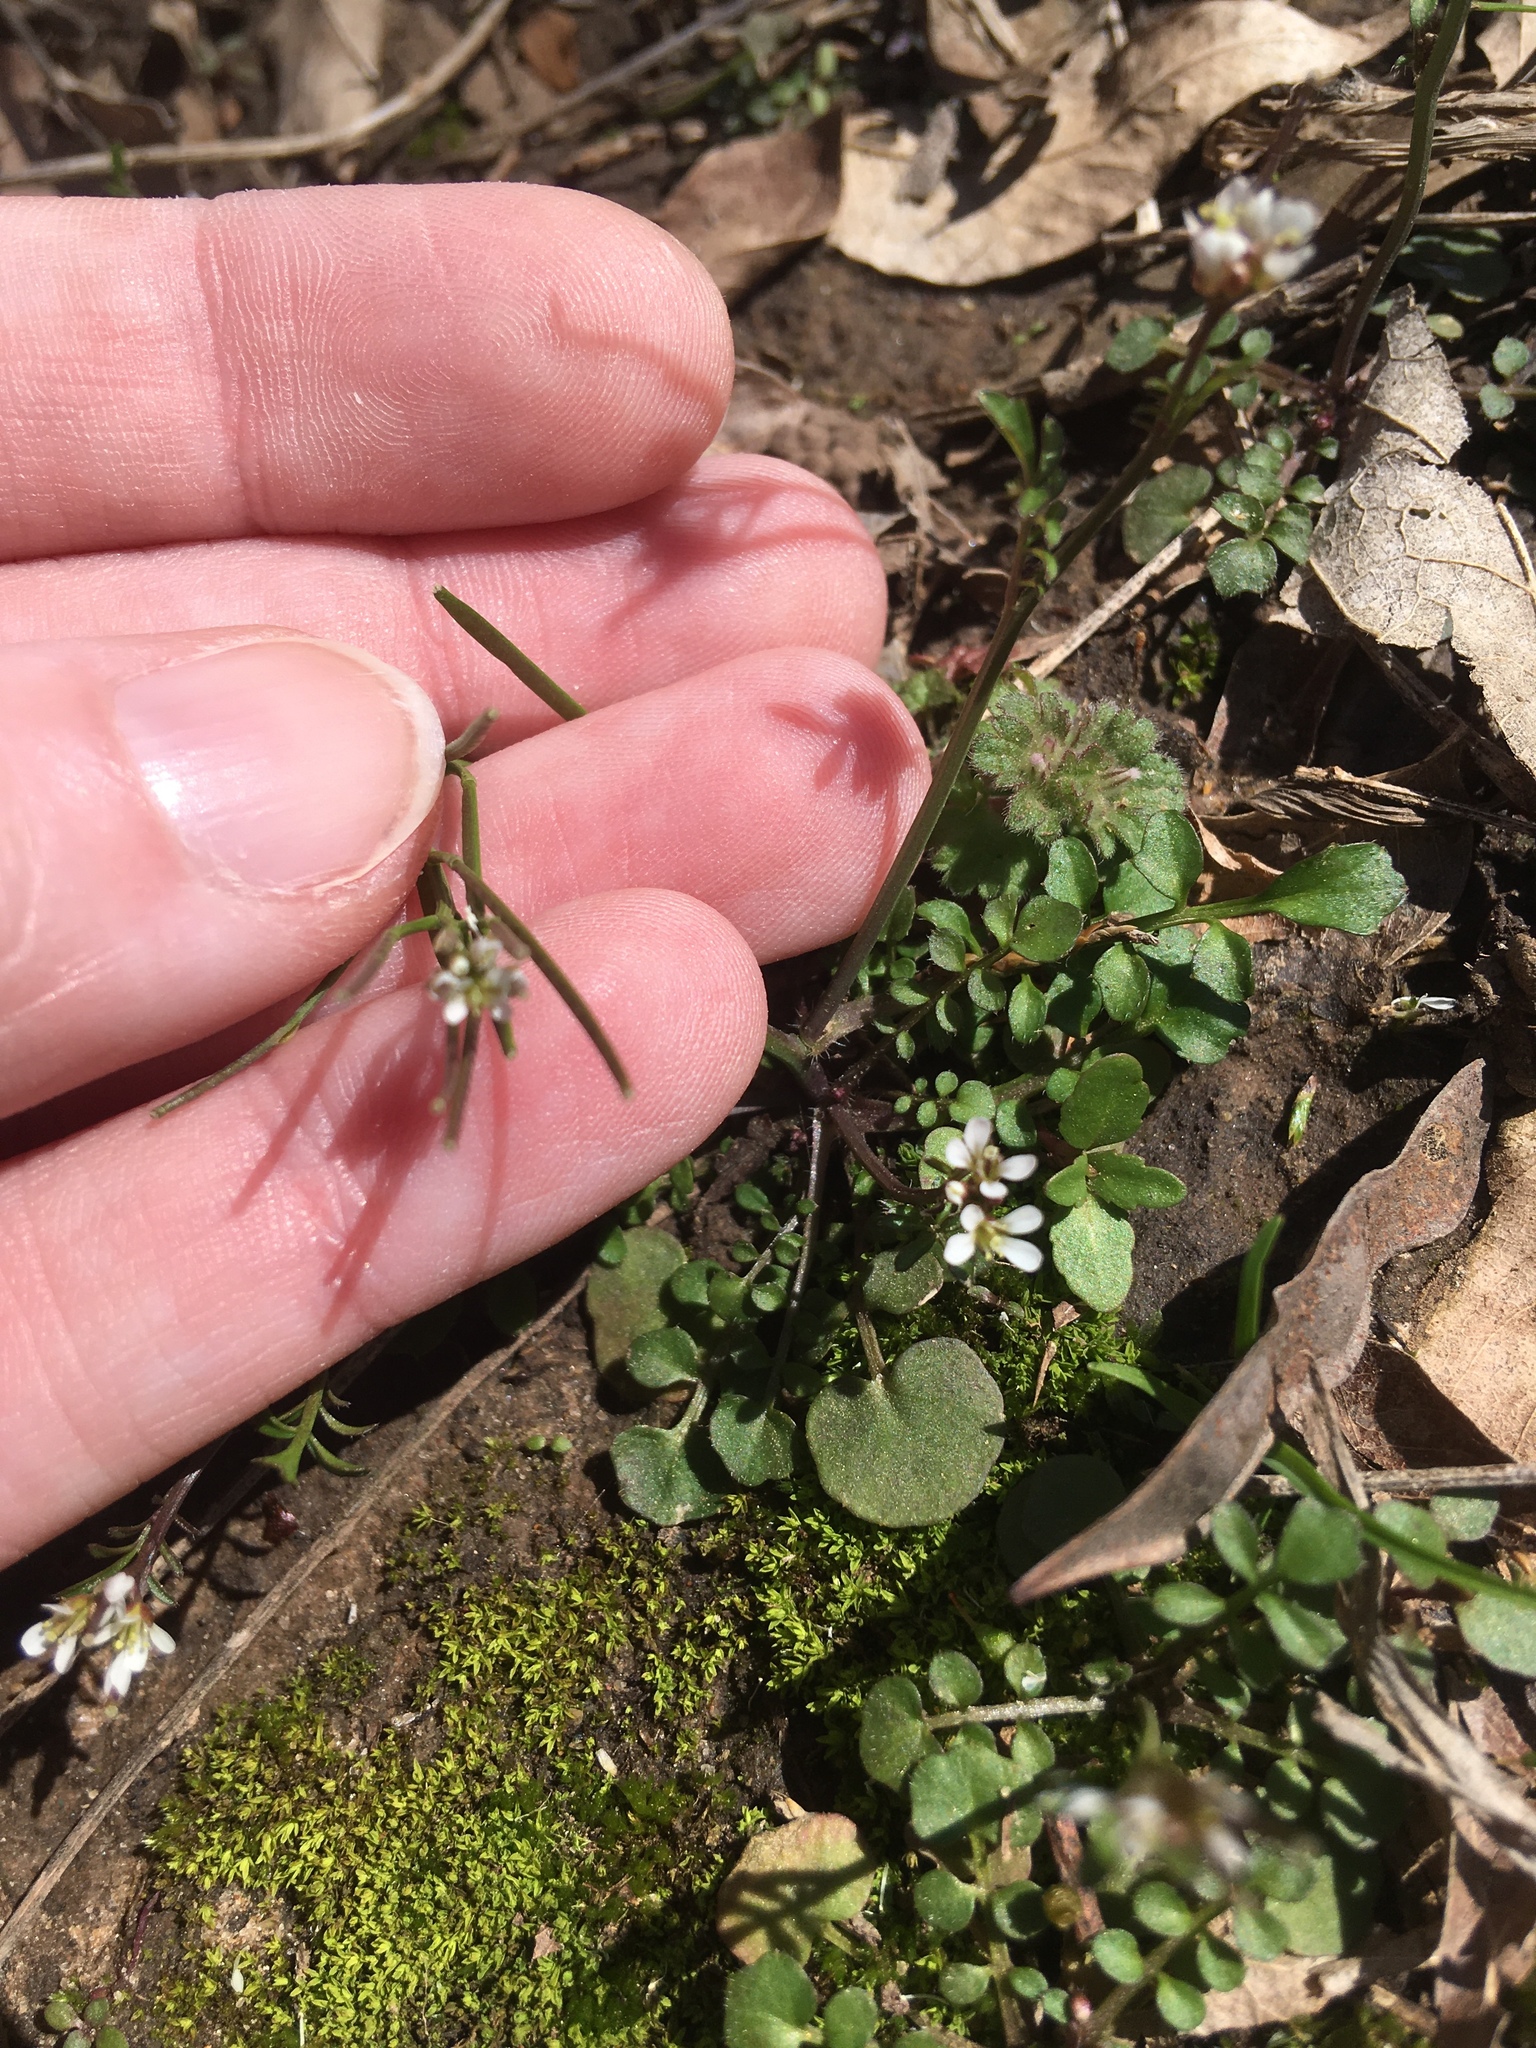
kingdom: Plantae
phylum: Tracheophyta
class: Magnoliopsida
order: Brassicales
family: Brassicaceae
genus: Cardamine
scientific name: Cardamine hirsuta
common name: Hairy bittercress
